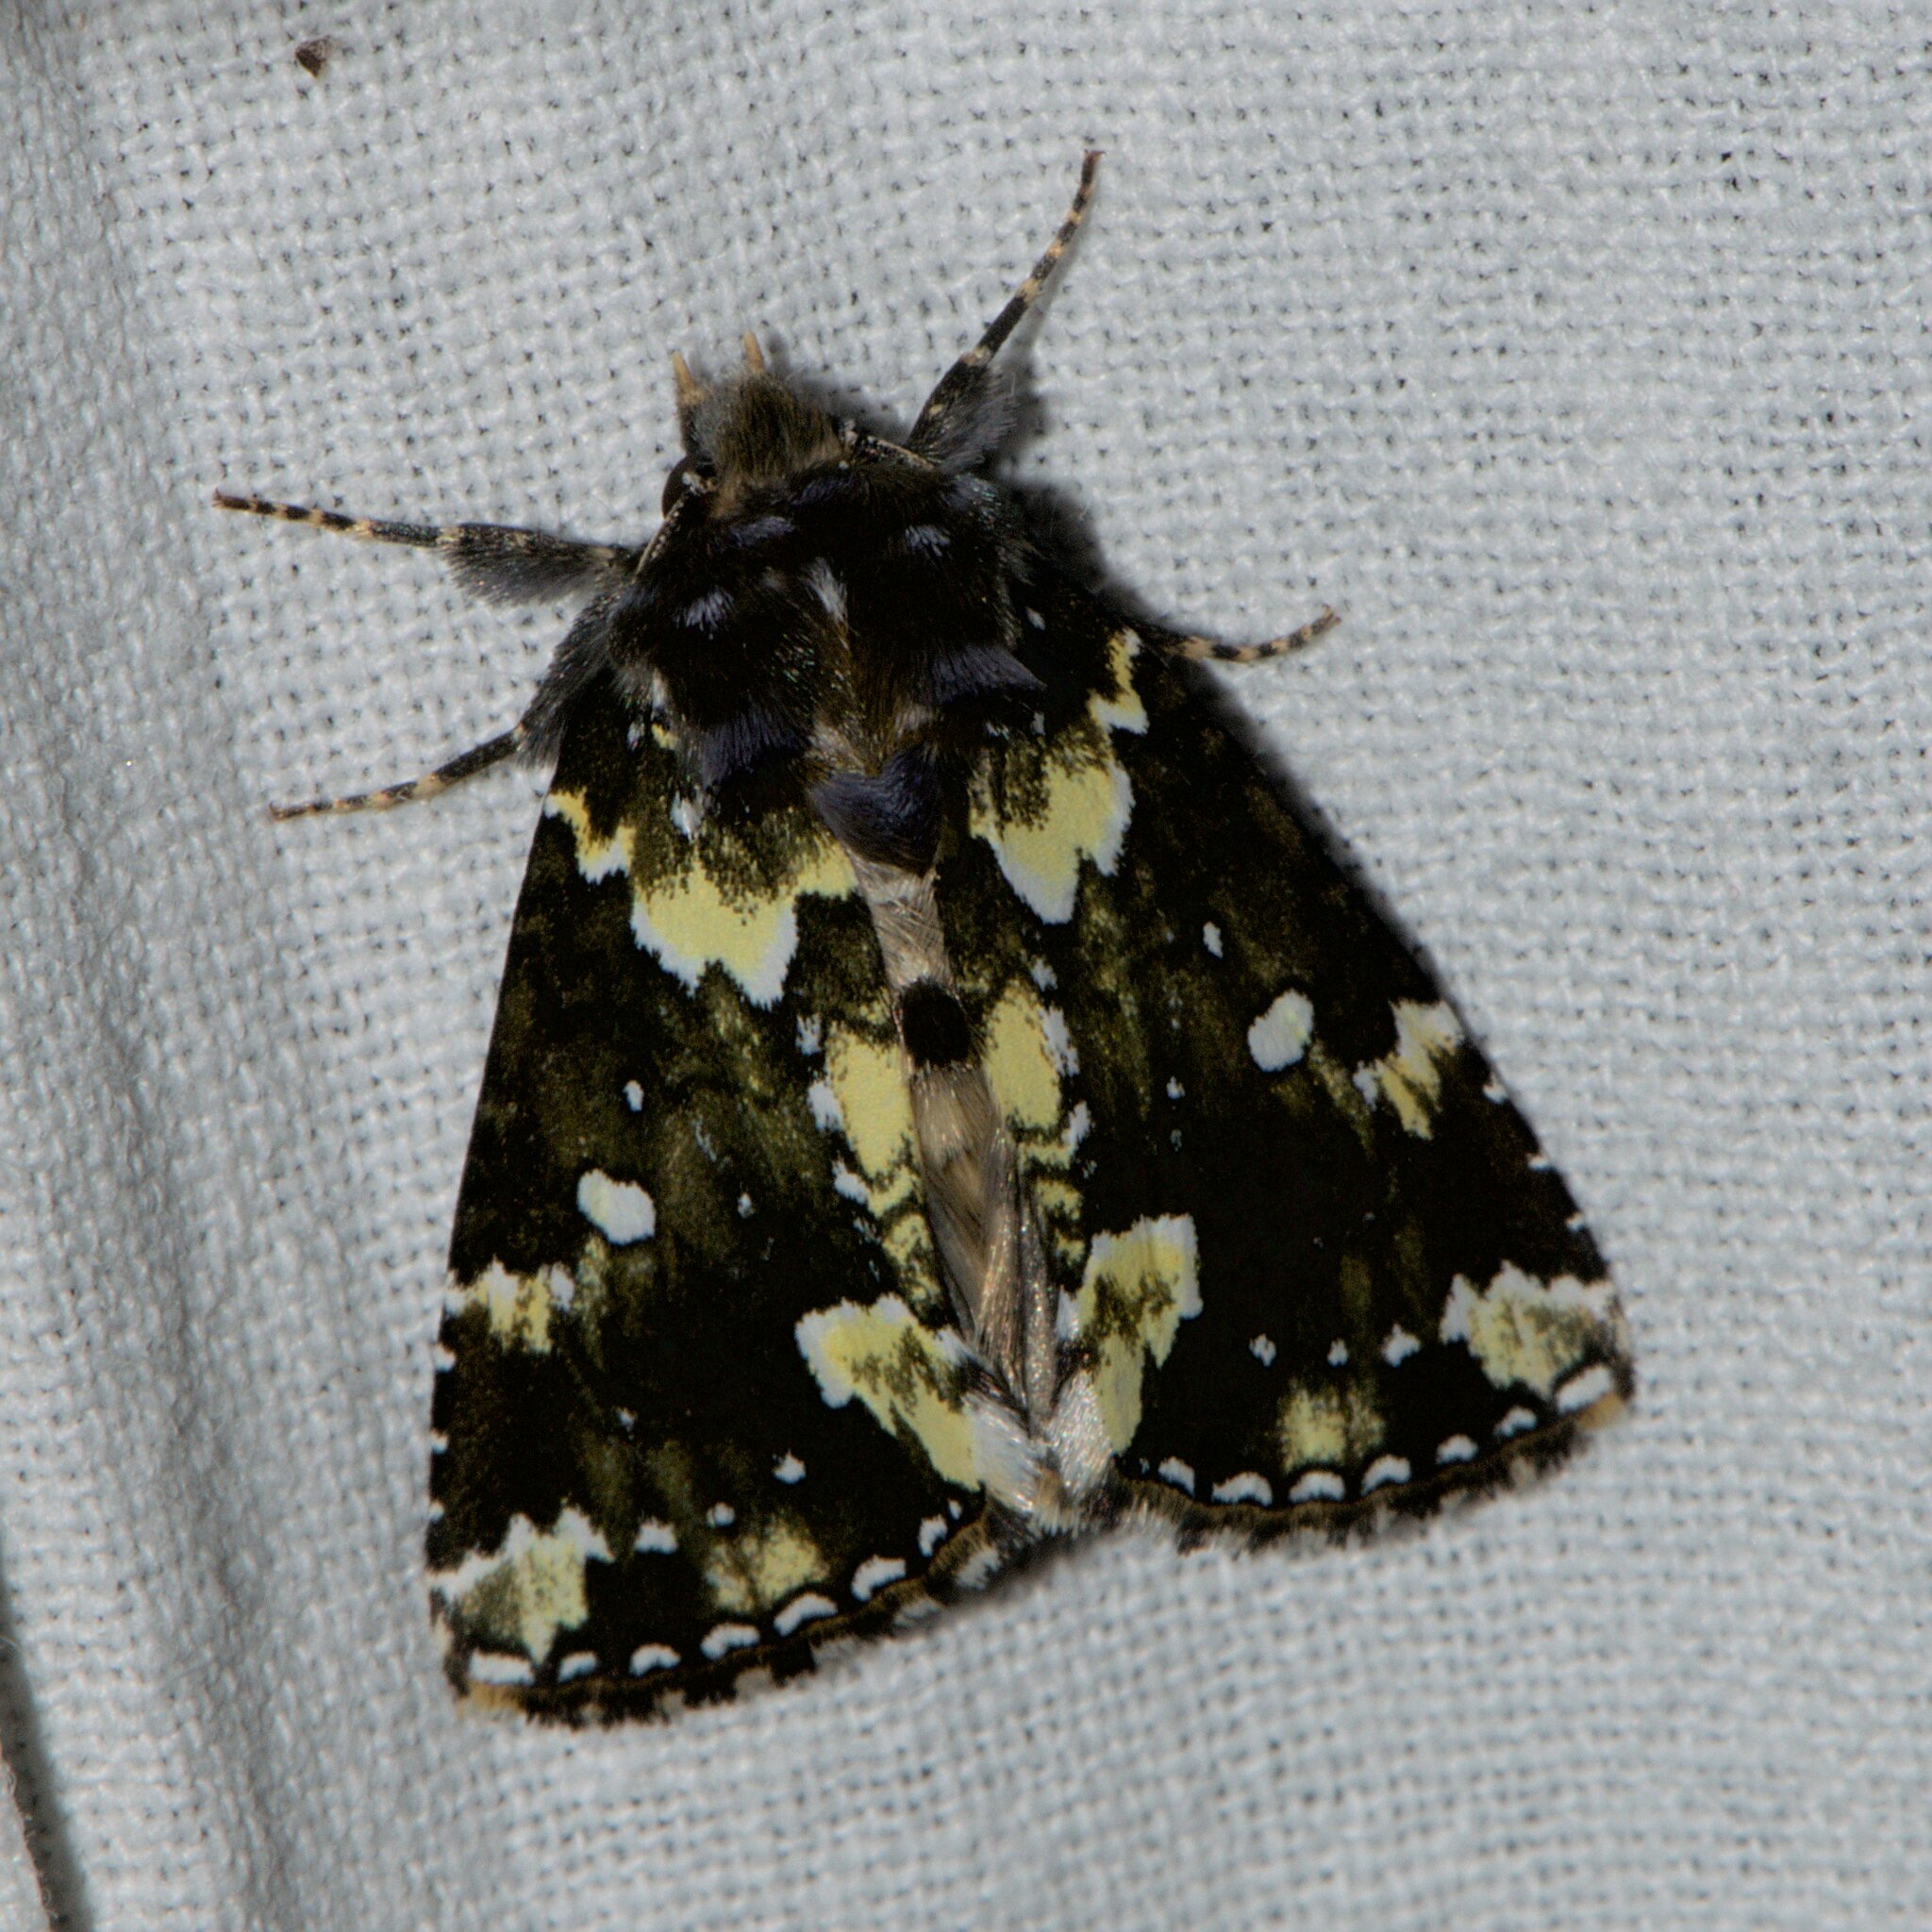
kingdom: Animalia
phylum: Arthropoda
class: Insecta
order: Lepidoptera
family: Drepanidae
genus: Gaurena
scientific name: Gaurena florens
